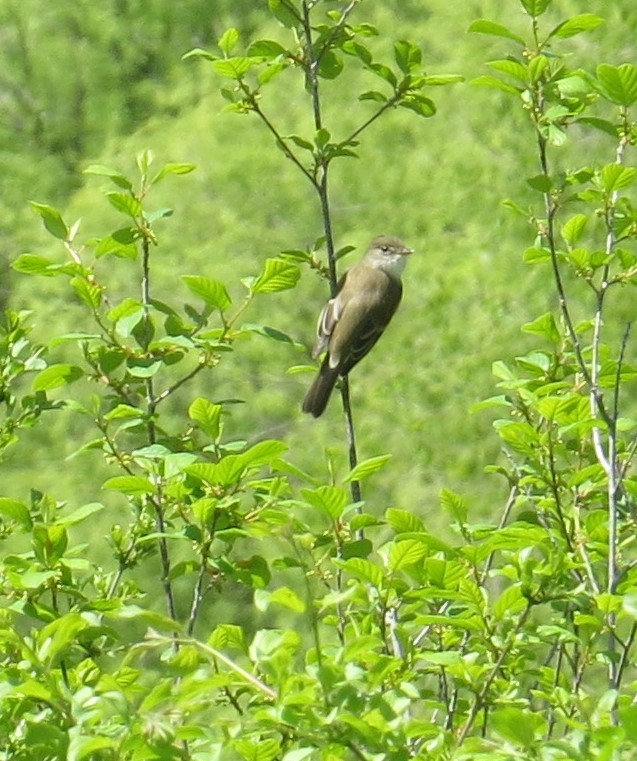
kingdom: Animalia
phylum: Chordata
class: Aves
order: Passeriformes
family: Tyrannidae
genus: Empidonax
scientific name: Empidonax traillii
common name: Willow flycatcher
